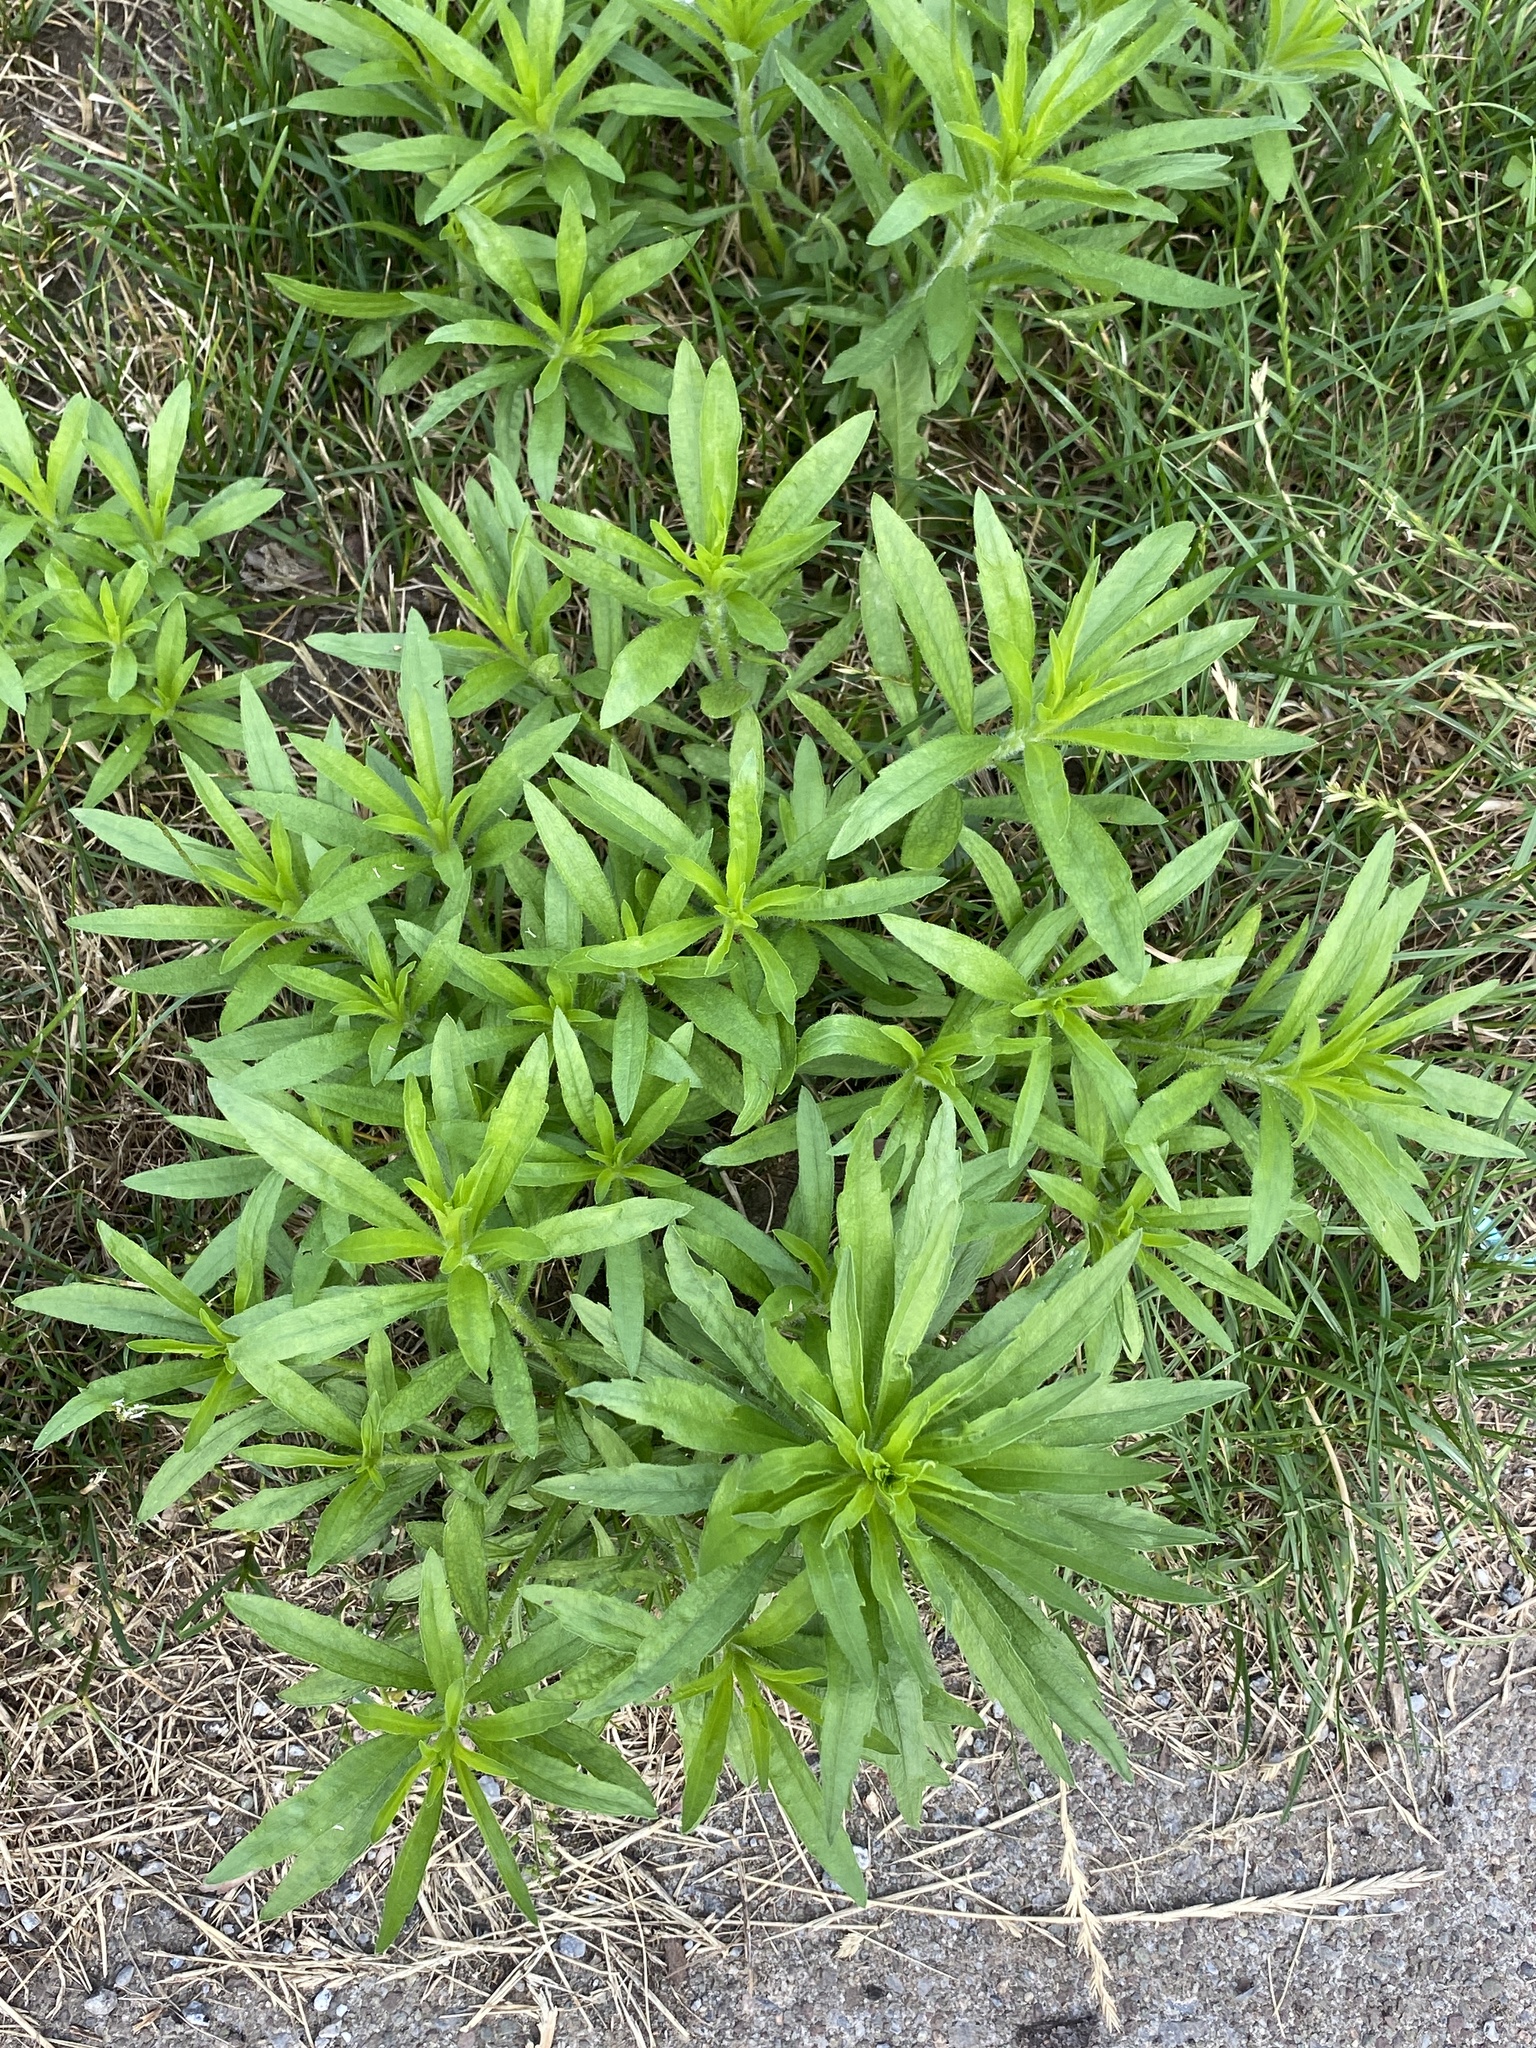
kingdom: Plantae
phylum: Tracheophyta
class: Magnoliopsida
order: Asterales
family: Asteraceae
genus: Erigeron
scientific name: Erigeron canadensis
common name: Canadian fleabane
